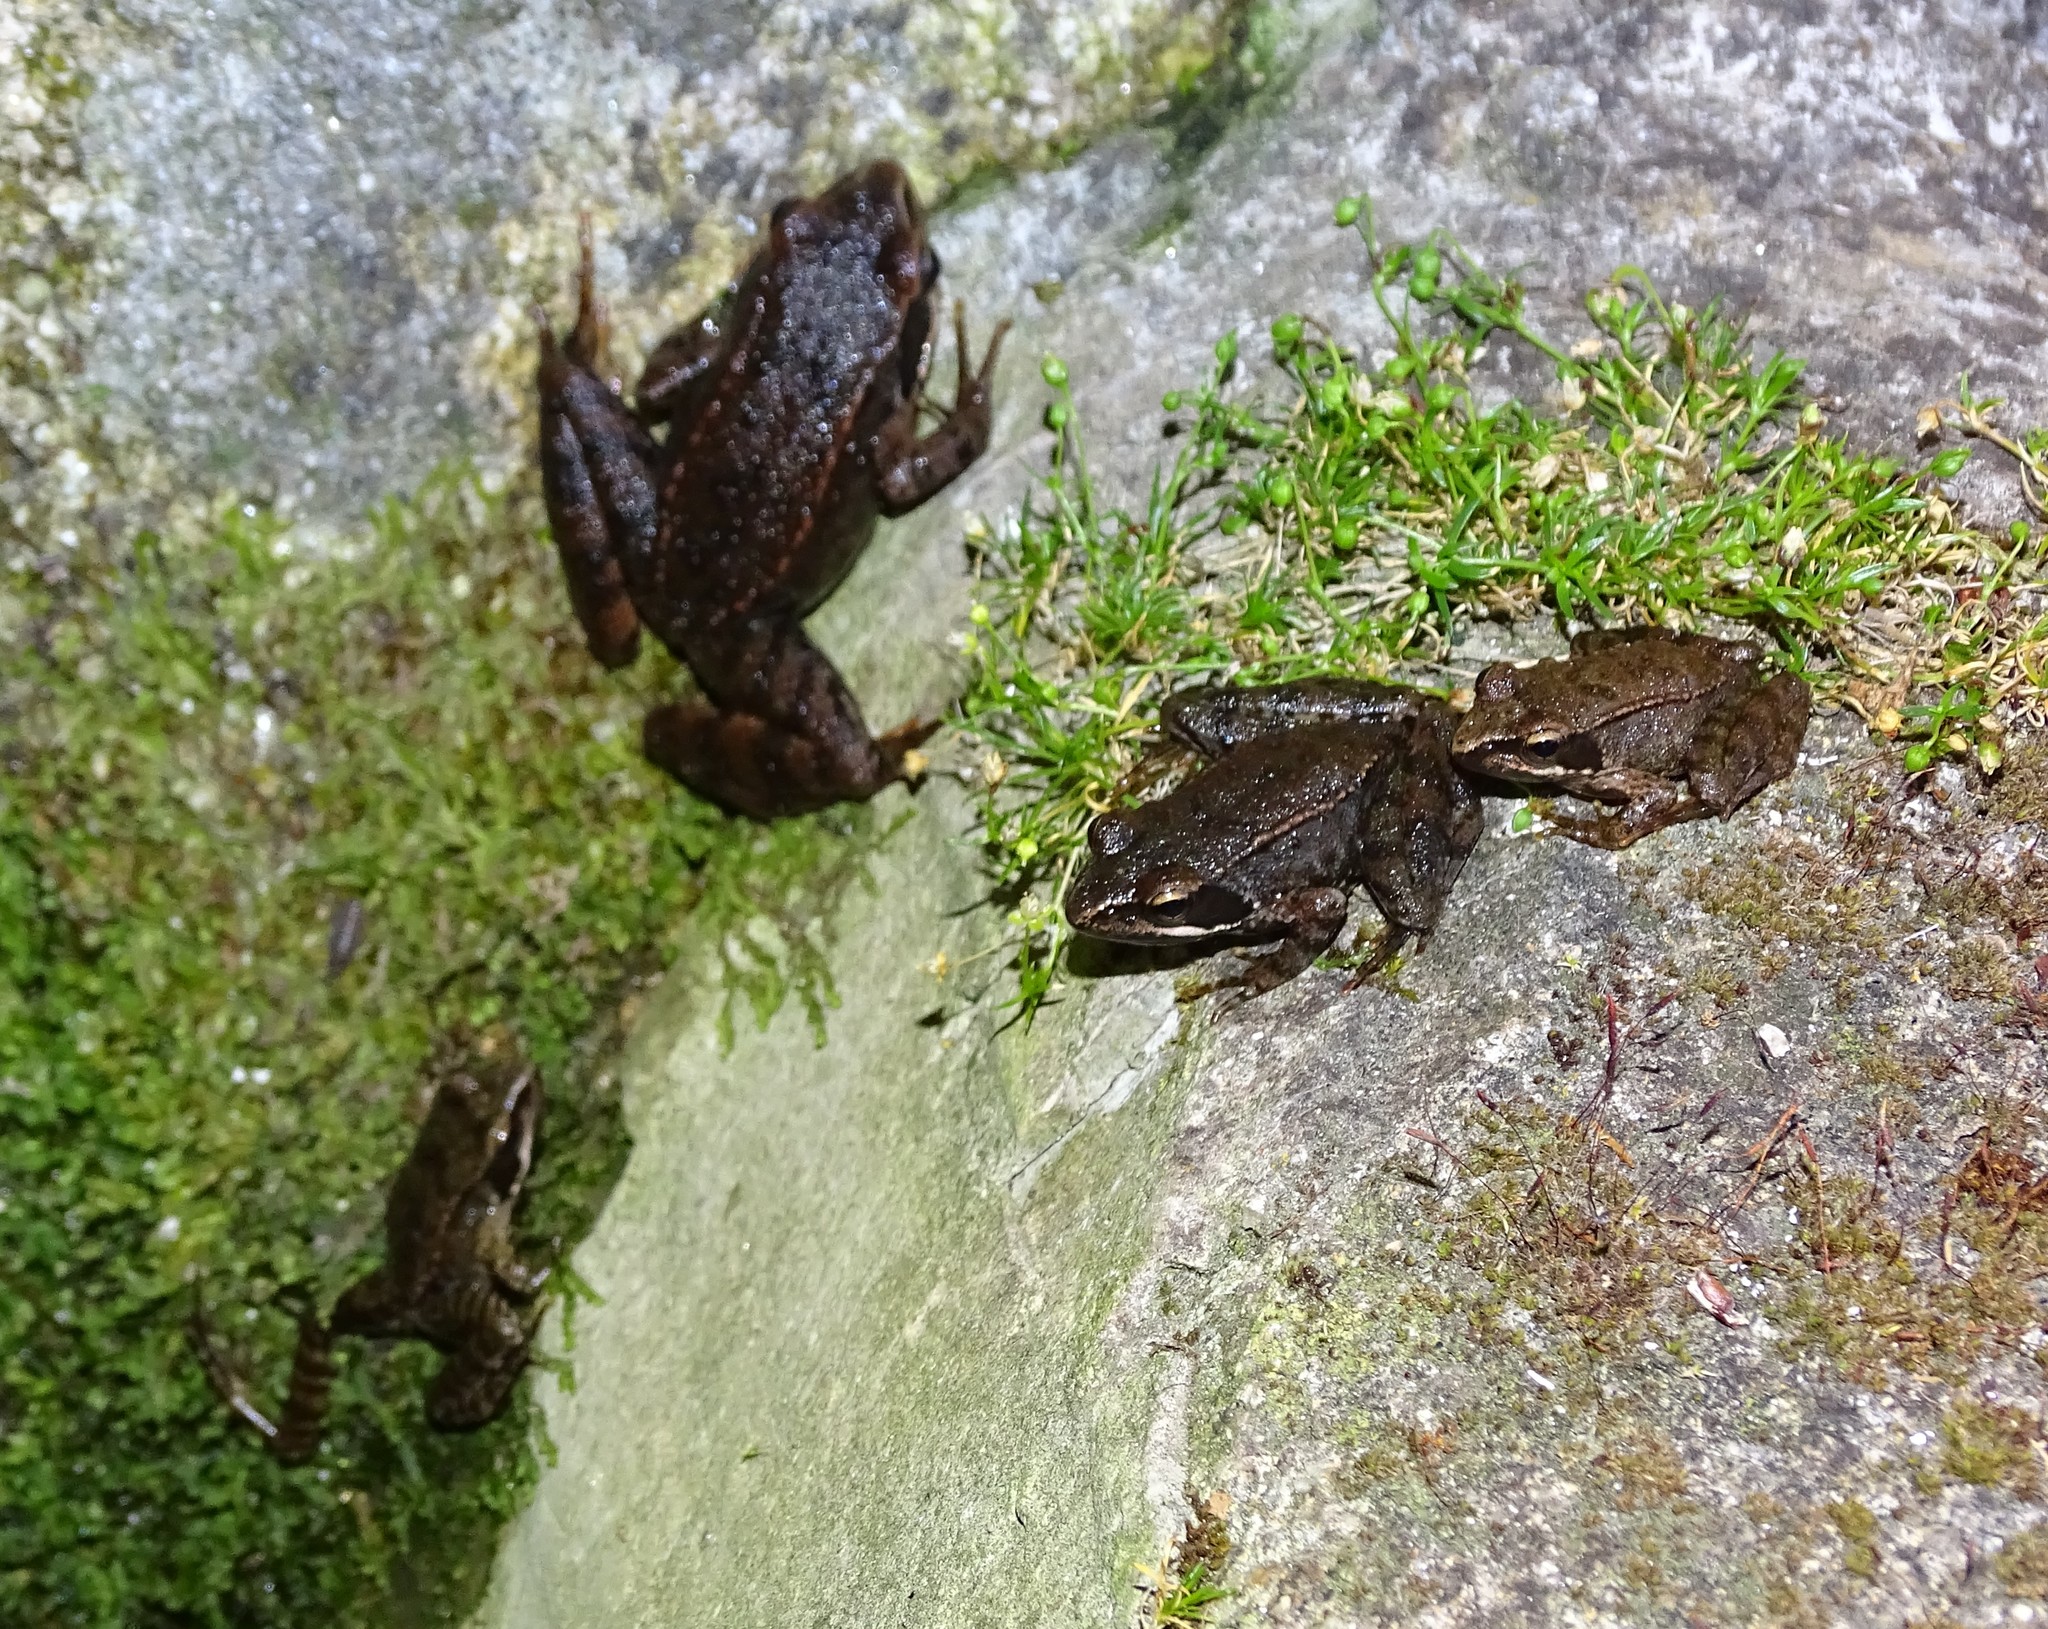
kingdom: Animalia
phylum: Chordata
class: Amphibia
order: Anura
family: Ranidae
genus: Rana
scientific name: Rana iberica
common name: Iberian frog
